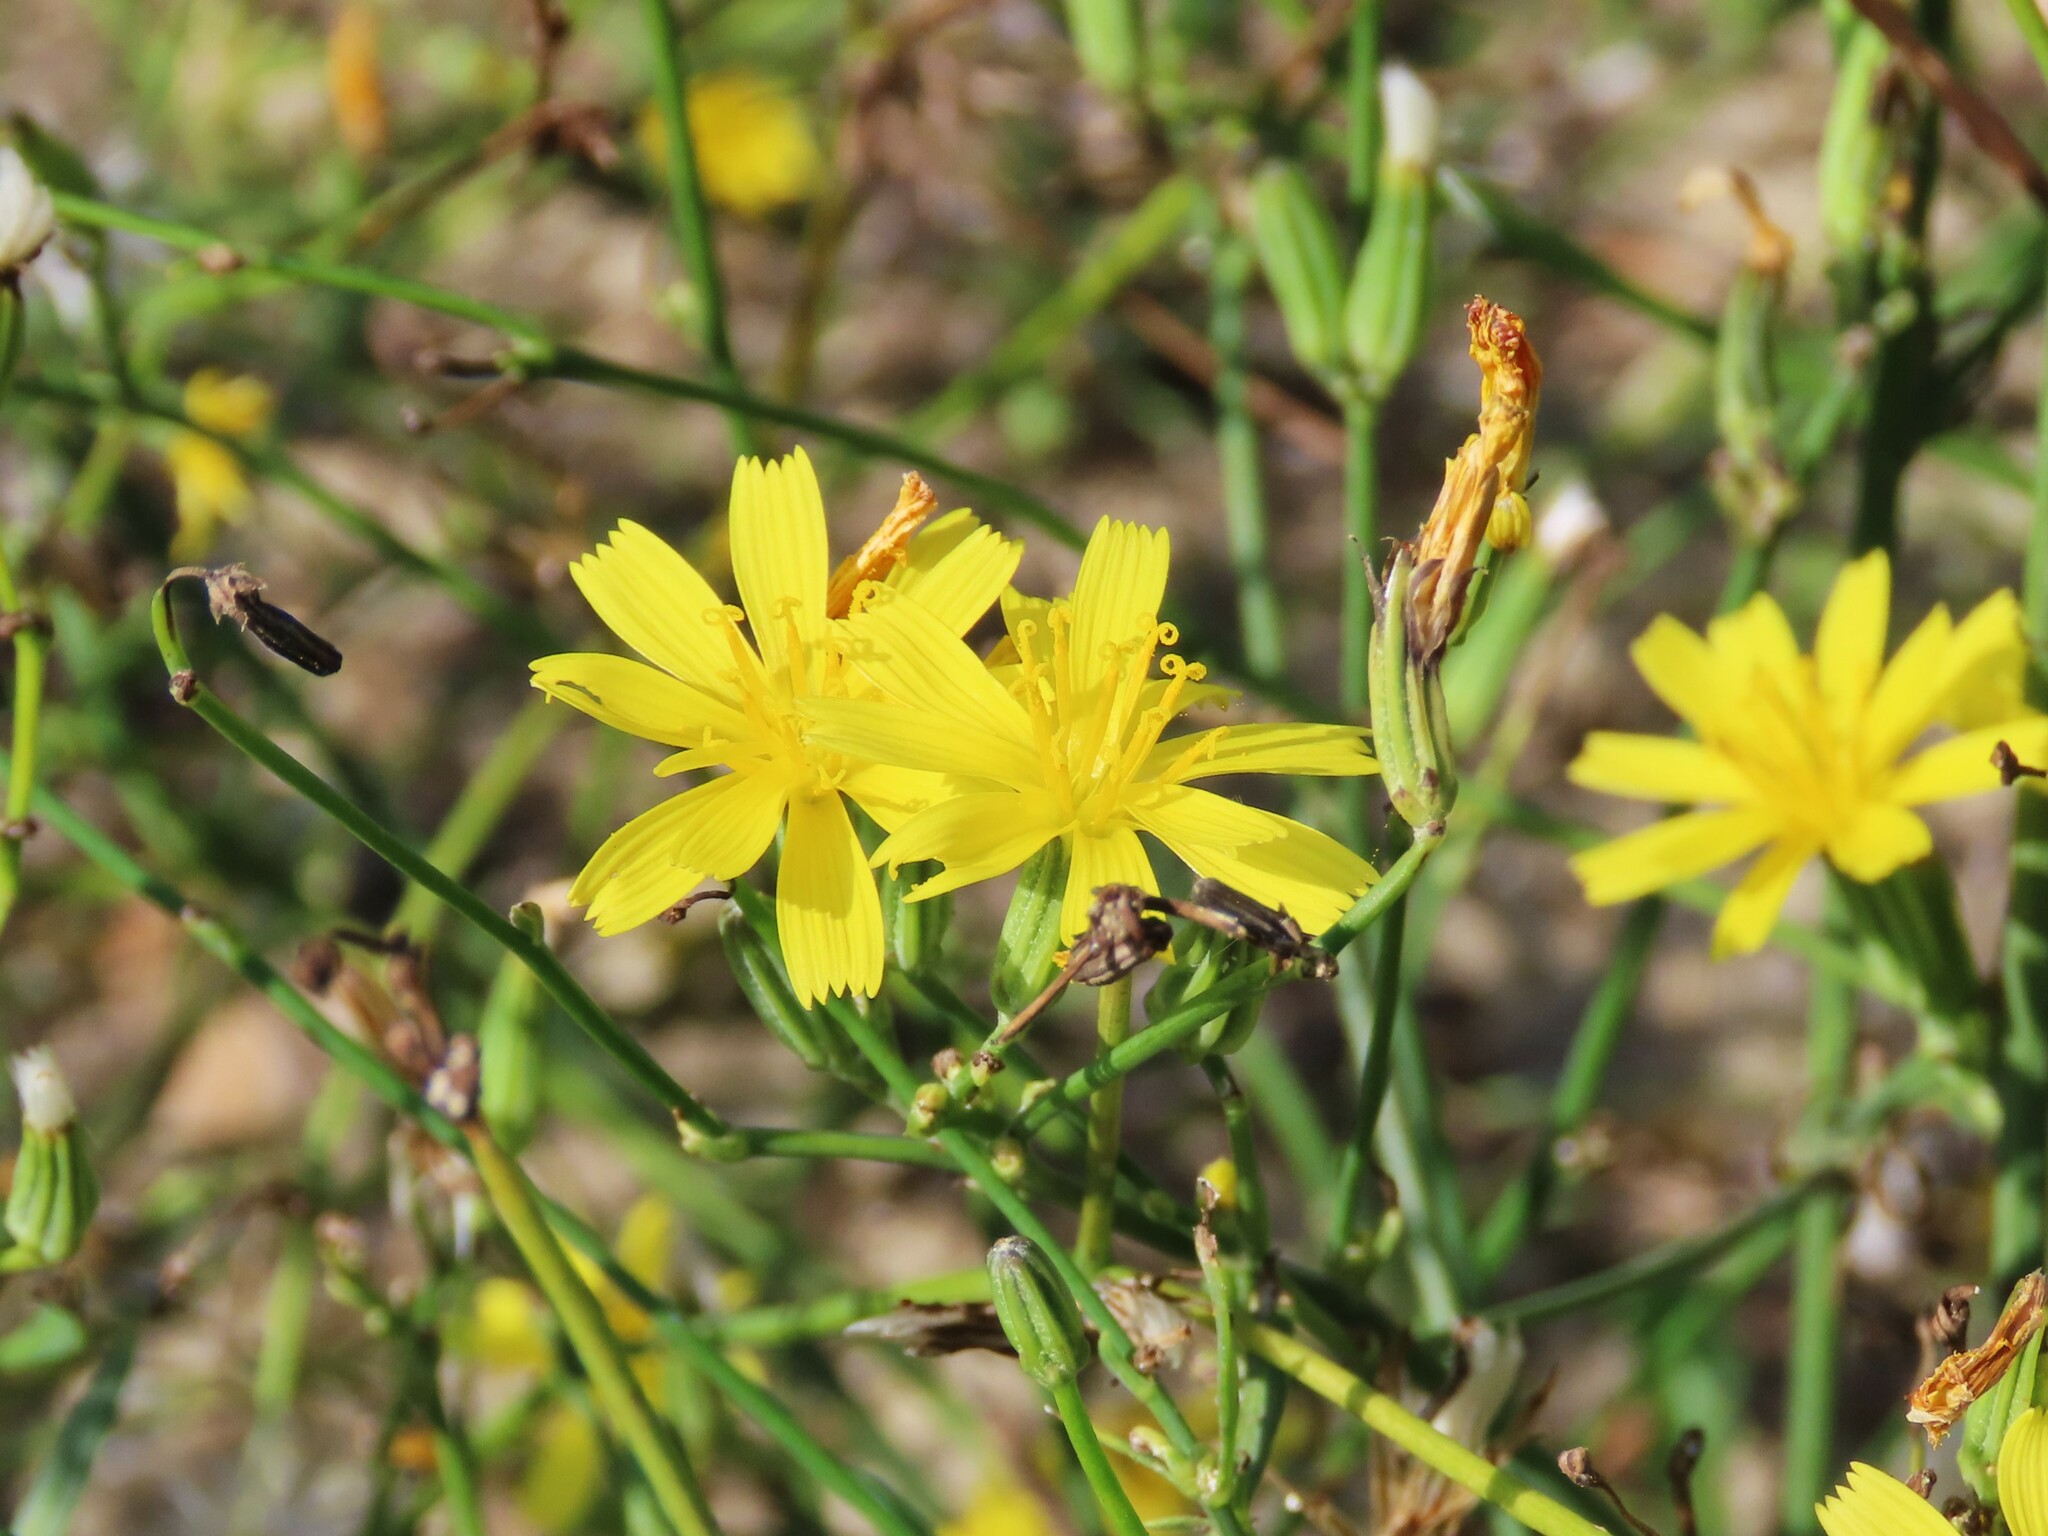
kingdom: Plantae
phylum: Tracheophyta
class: Magnoliopsida
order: Asterales
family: Asteraceae
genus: Chondrilla
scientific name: Chondrilla juncea
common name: Skeleton weed
